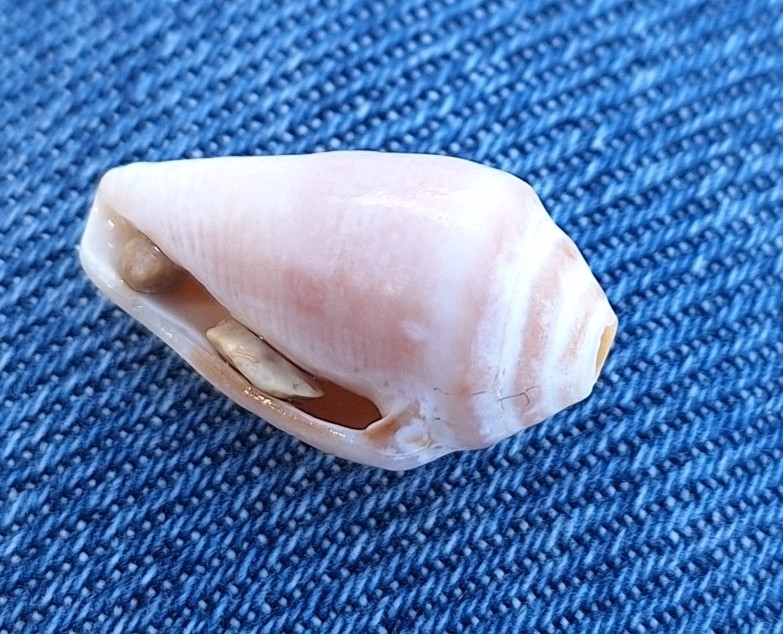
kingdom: Animalia
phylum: Mollusca
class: Gastropoda
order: Neogastropoda
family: Conidae
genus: Conus
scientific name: Conus ventricosus
